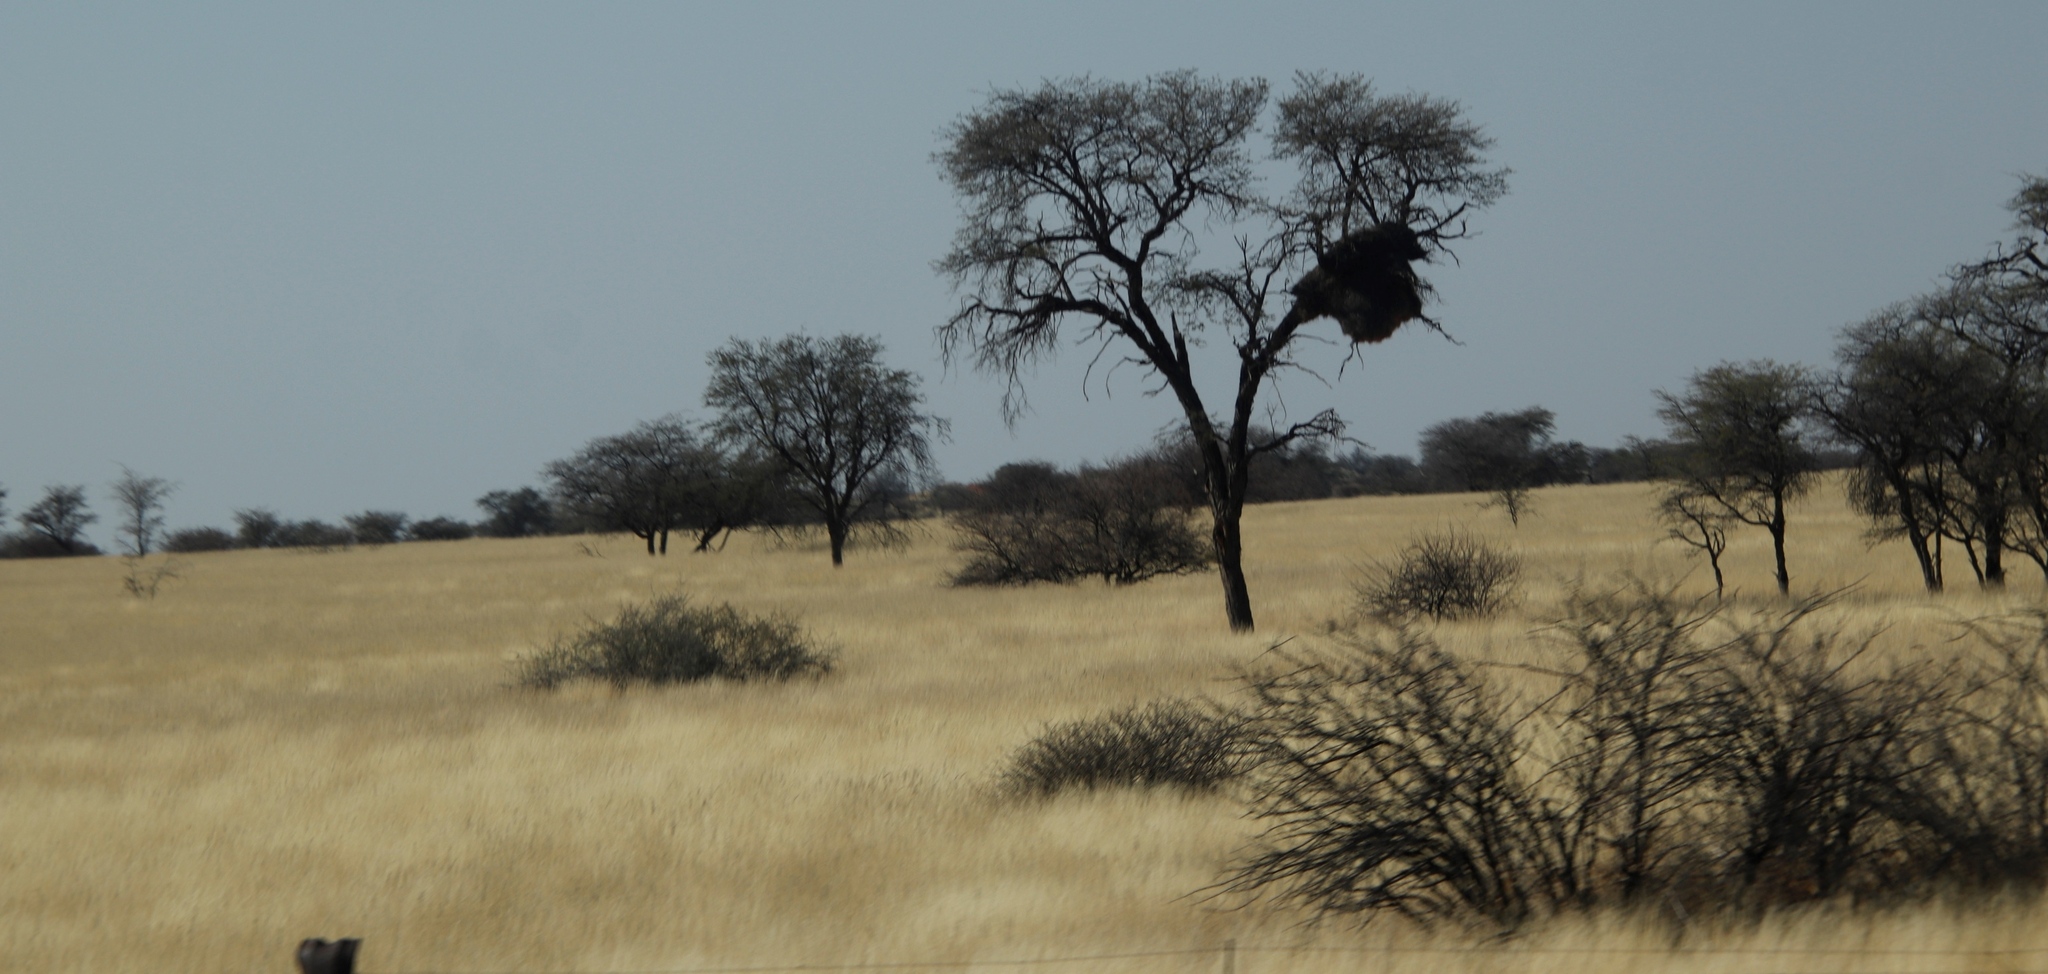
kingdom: Animalia
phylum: Chordata
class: Aves
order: Passeriformes
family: Passeridae
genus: Philetairus
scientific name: Philetairus socius
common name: Sociable weaver
